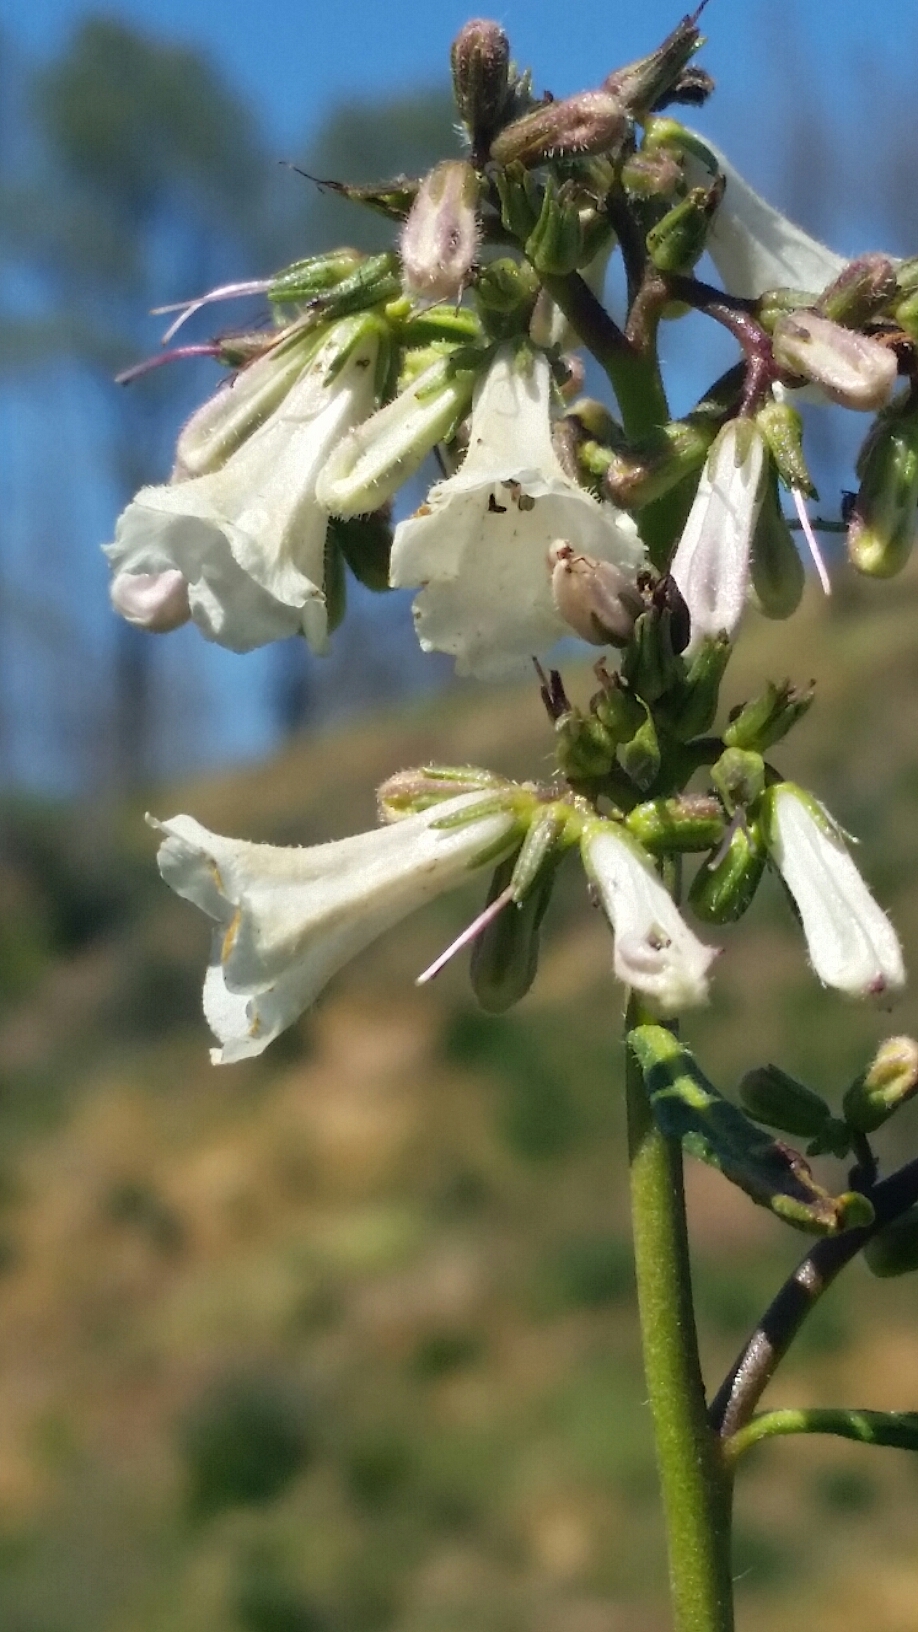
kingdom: Plantae
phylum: Tracheophyta
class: Magnoliopsida
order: Boraginales
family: Namaceae
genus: Eriodictyon
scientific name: Eriodictyon californicum
